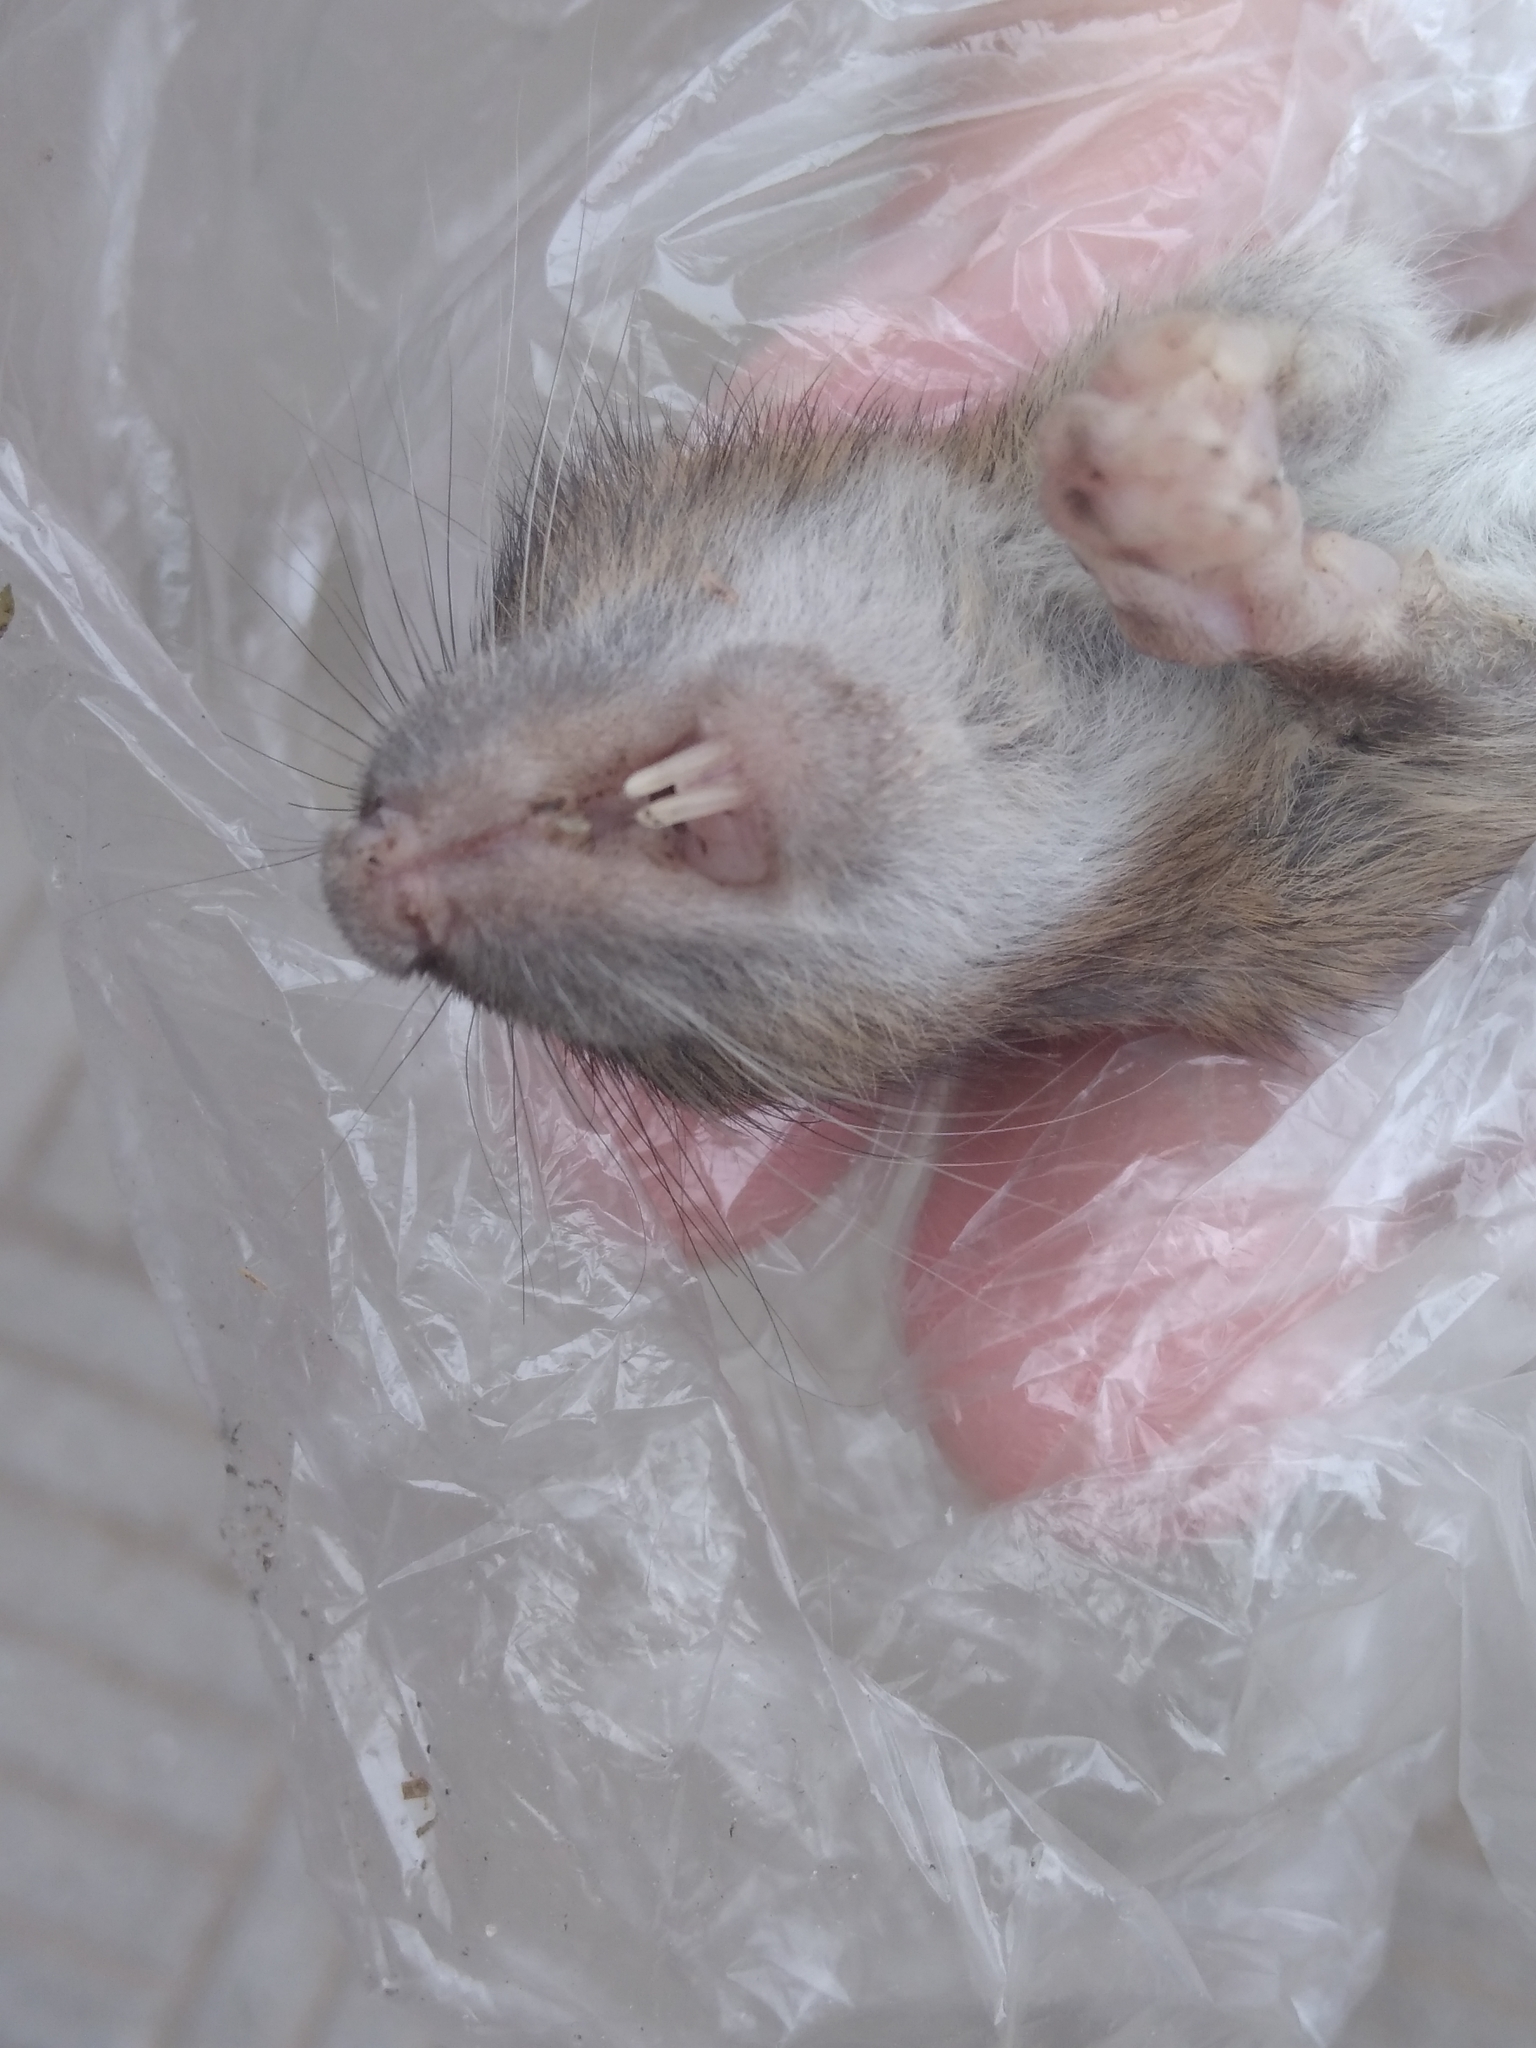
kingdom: Animalia
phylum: Chordata
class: Mammalia
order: Rodentia
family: Muridae
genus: Rattus
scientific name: Rattus norvegicus
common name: Brown rat
